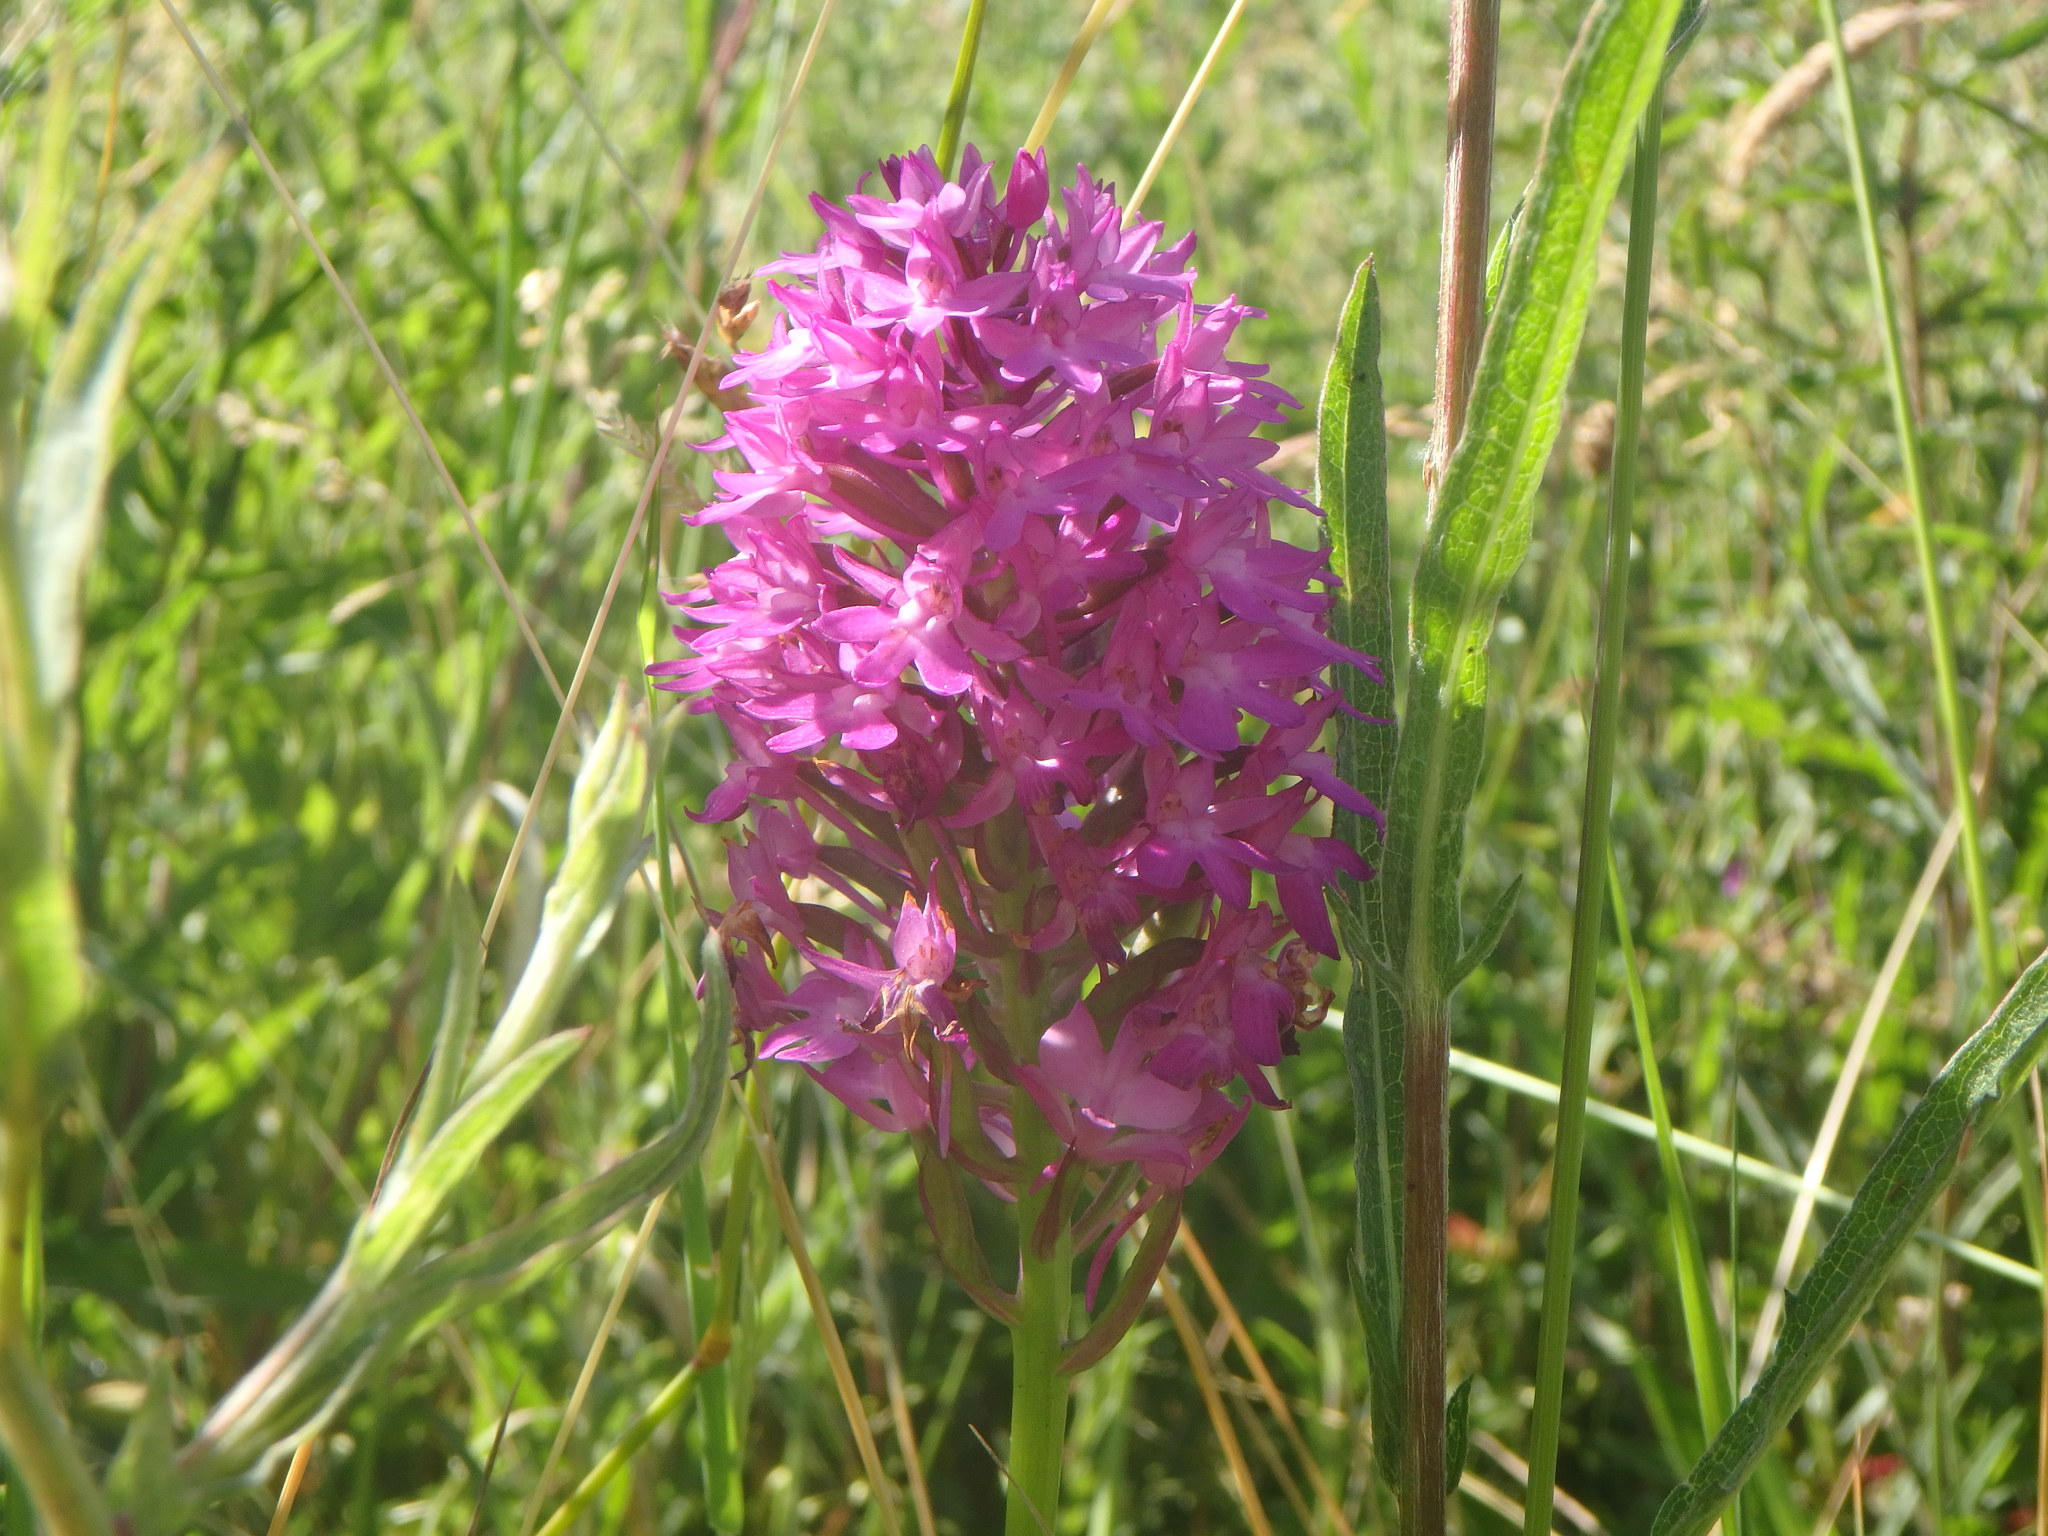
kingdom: Plantae
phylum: Tracheophyta
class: Liliopsida
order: Asparagales
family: Orchidaceae
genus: Anacamptis
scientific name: Anacamptis pyramidalis
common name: Pyramidal orchid
